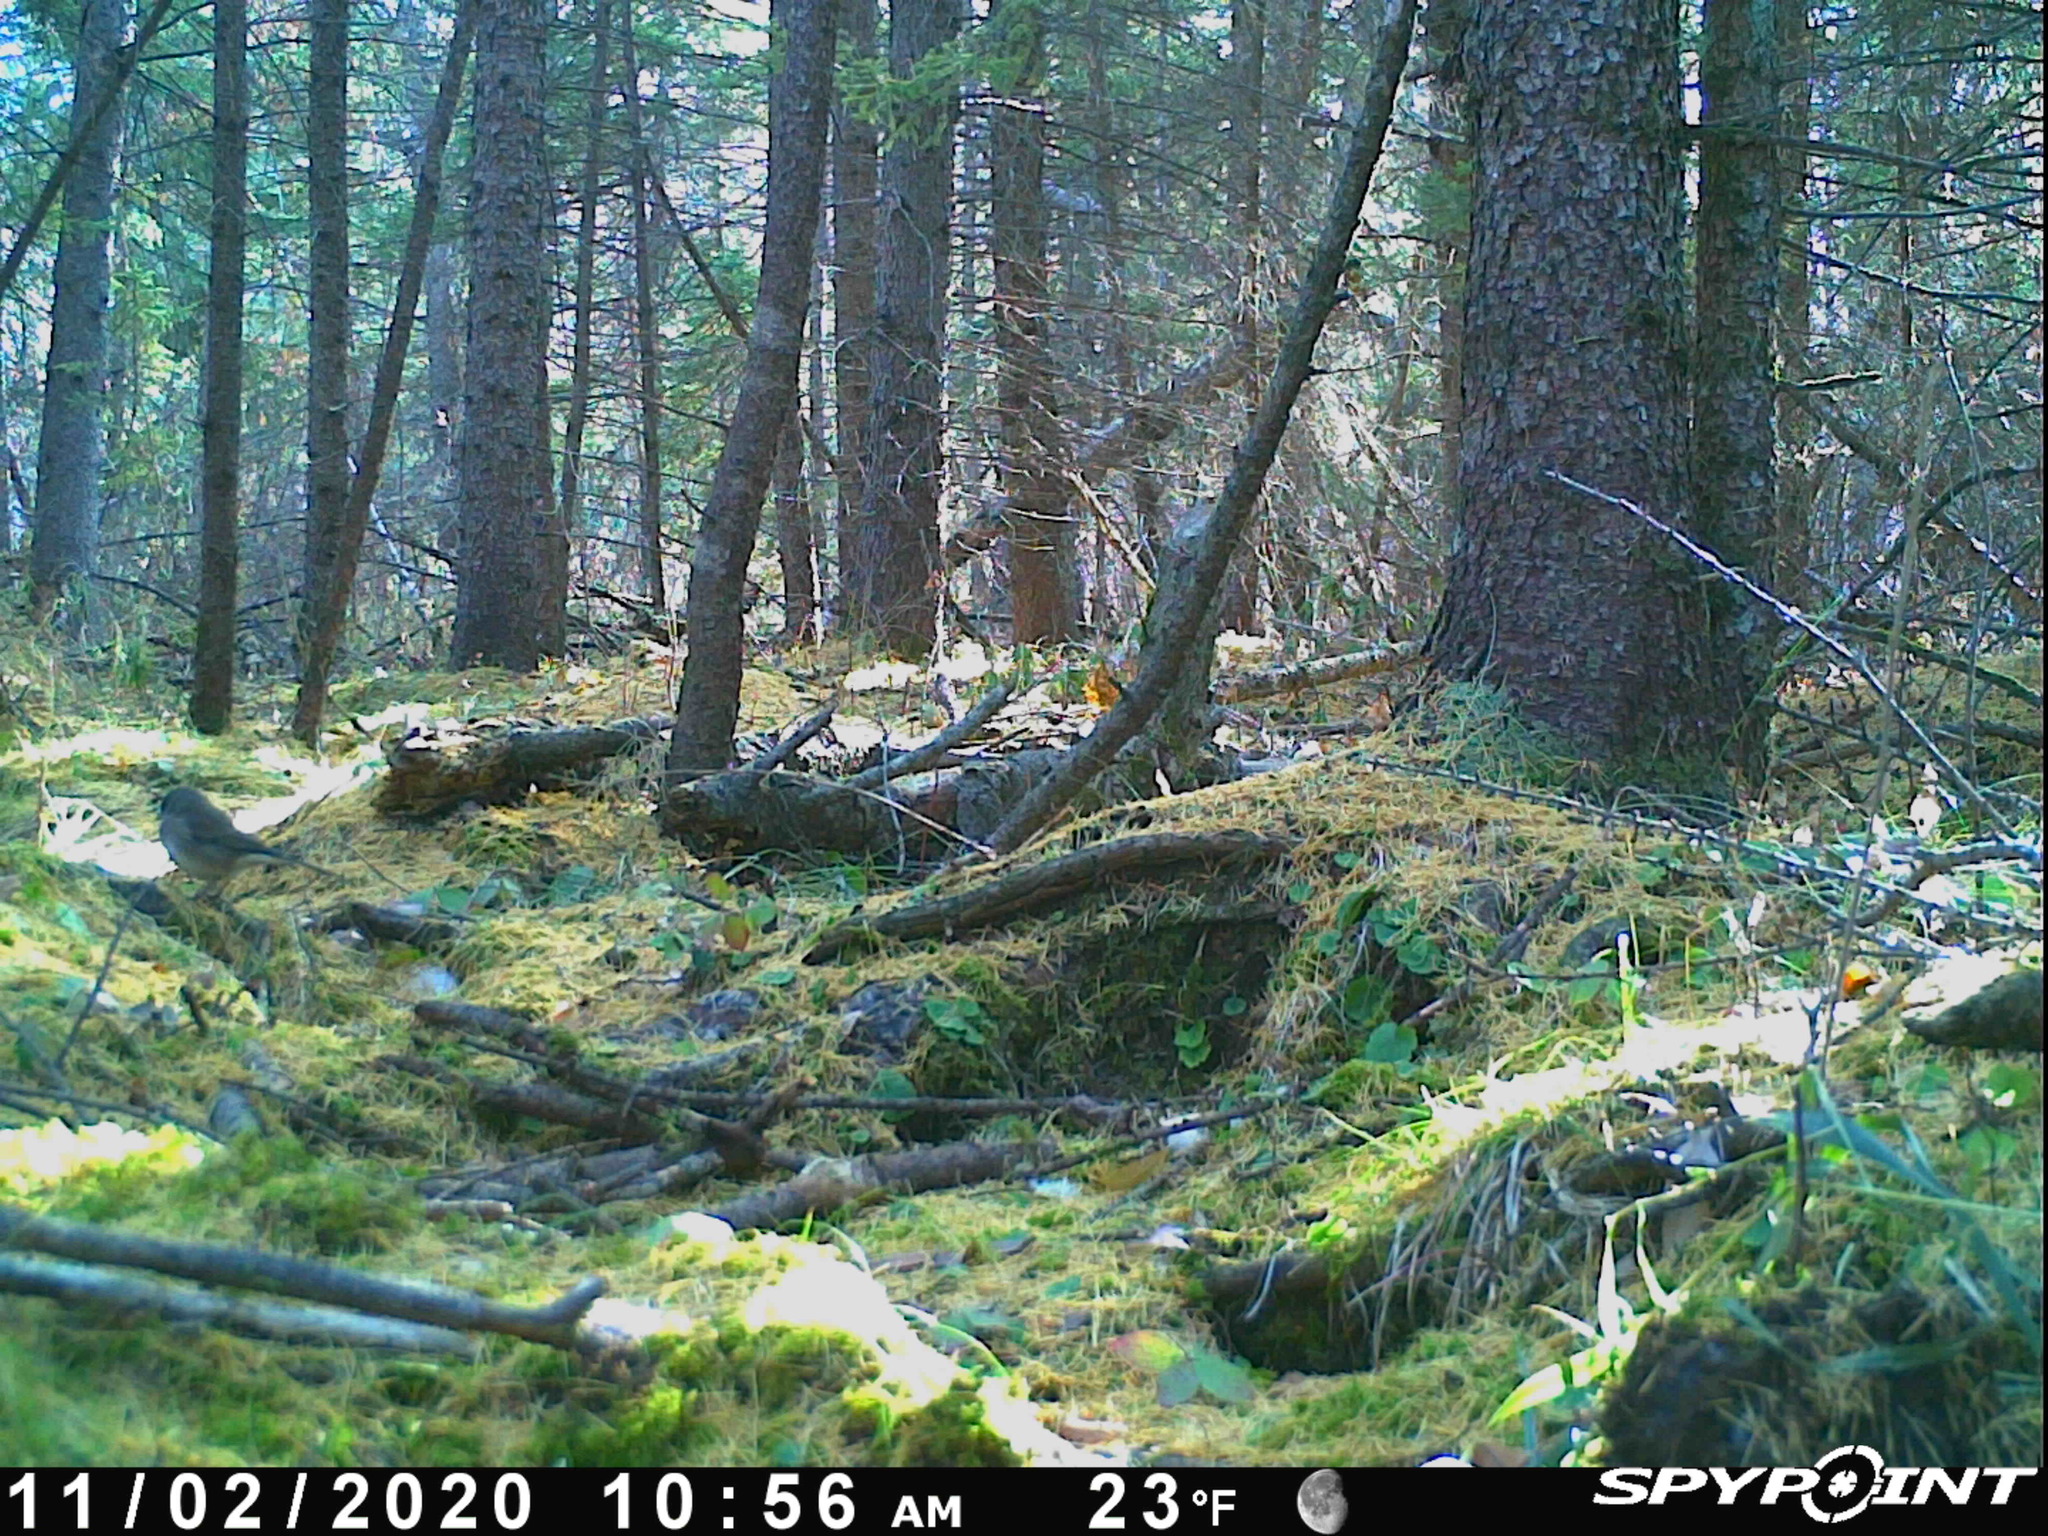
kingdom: Animalia
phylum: Chordata
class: Aves
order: Passeriformes
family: Passerellidae
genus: Junco
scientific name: Junco hyemalis
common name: Dark-eyed junco
